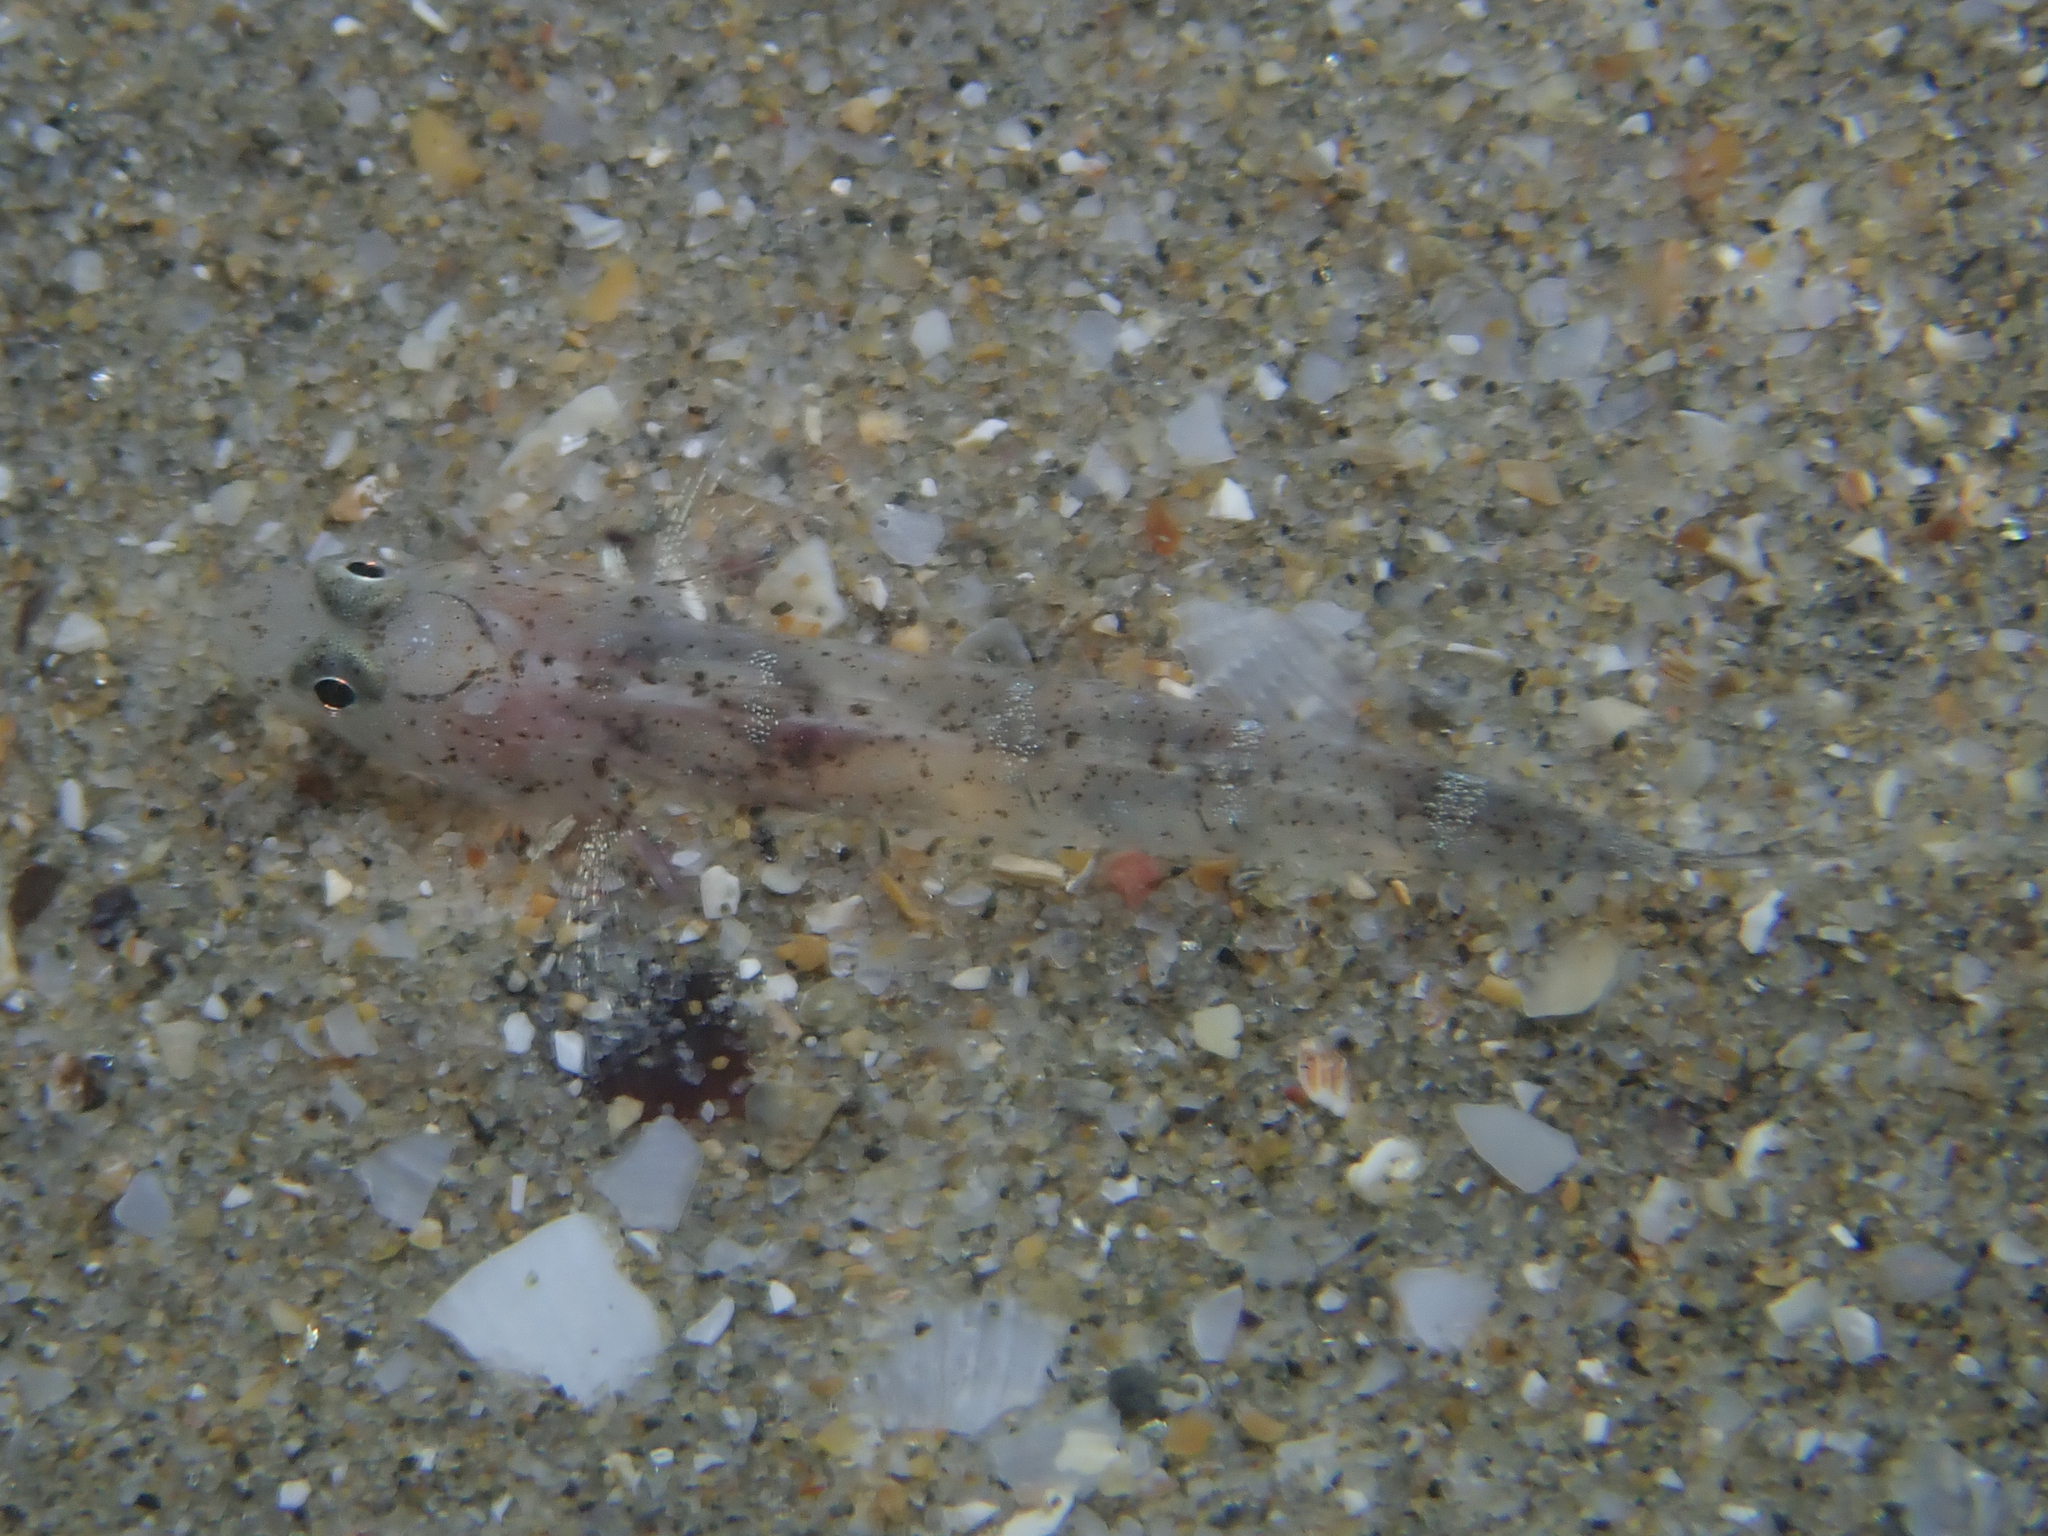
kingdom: Animalia
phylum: Chordata
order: Perciformes
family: Gobiidae
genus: Pomatoschistus
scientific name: Pomatoschistus marmoratus
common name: Marbled goby
